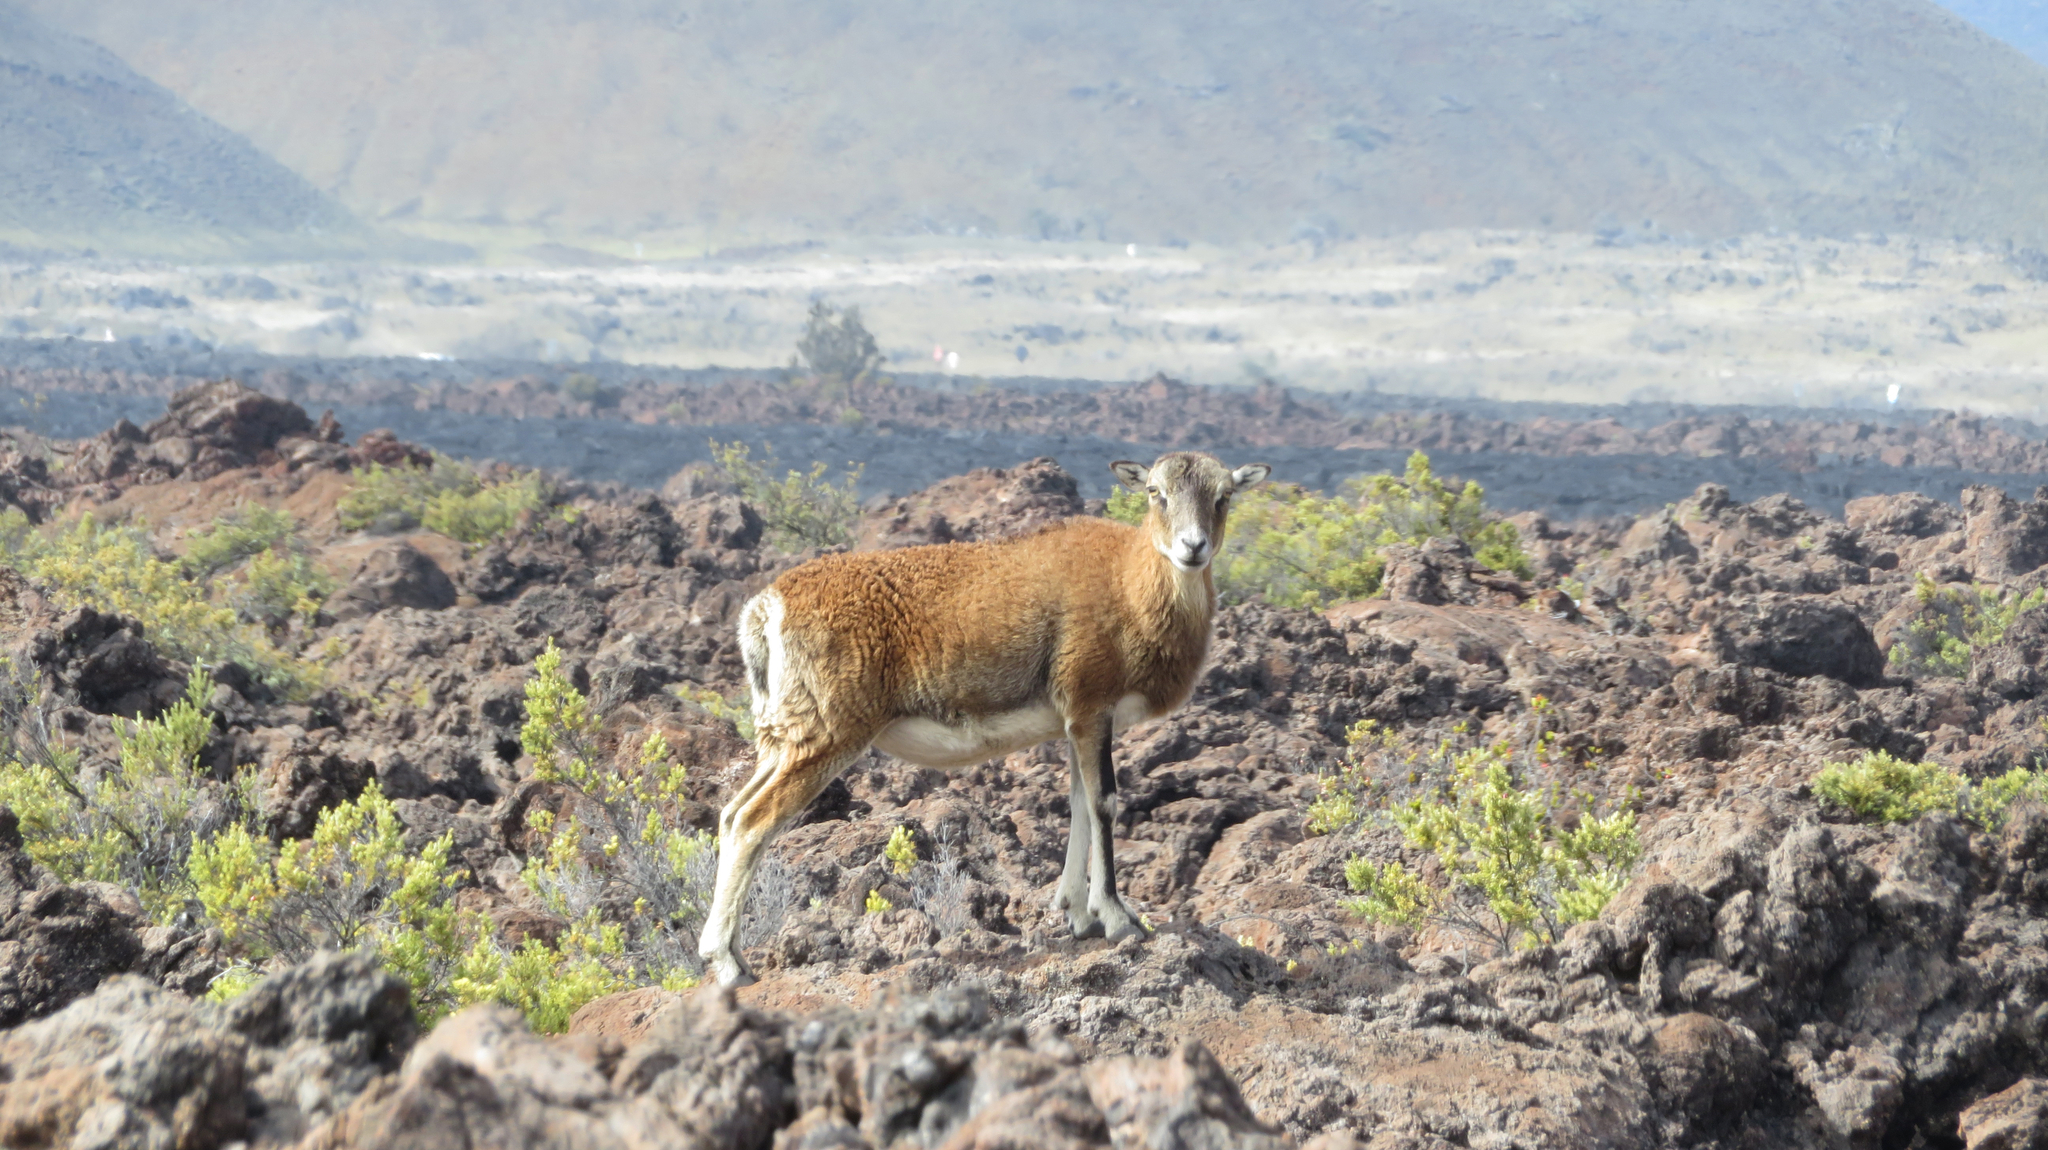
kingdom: Animalia
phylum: Chordata
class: Mammalia
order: Artiodactyla
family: Bovidae
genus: Ovis
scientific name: Ovis aries
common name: Domestic sheep
